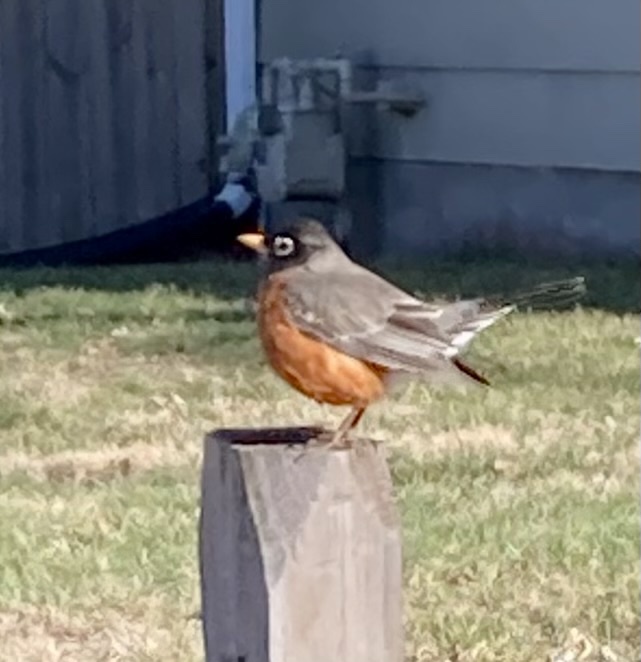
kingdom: Animalia
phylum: Chordata
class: Aves
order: Passeriformes
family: Turdidae
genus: Turdus
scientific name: Turdus migratorius
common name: American robin
